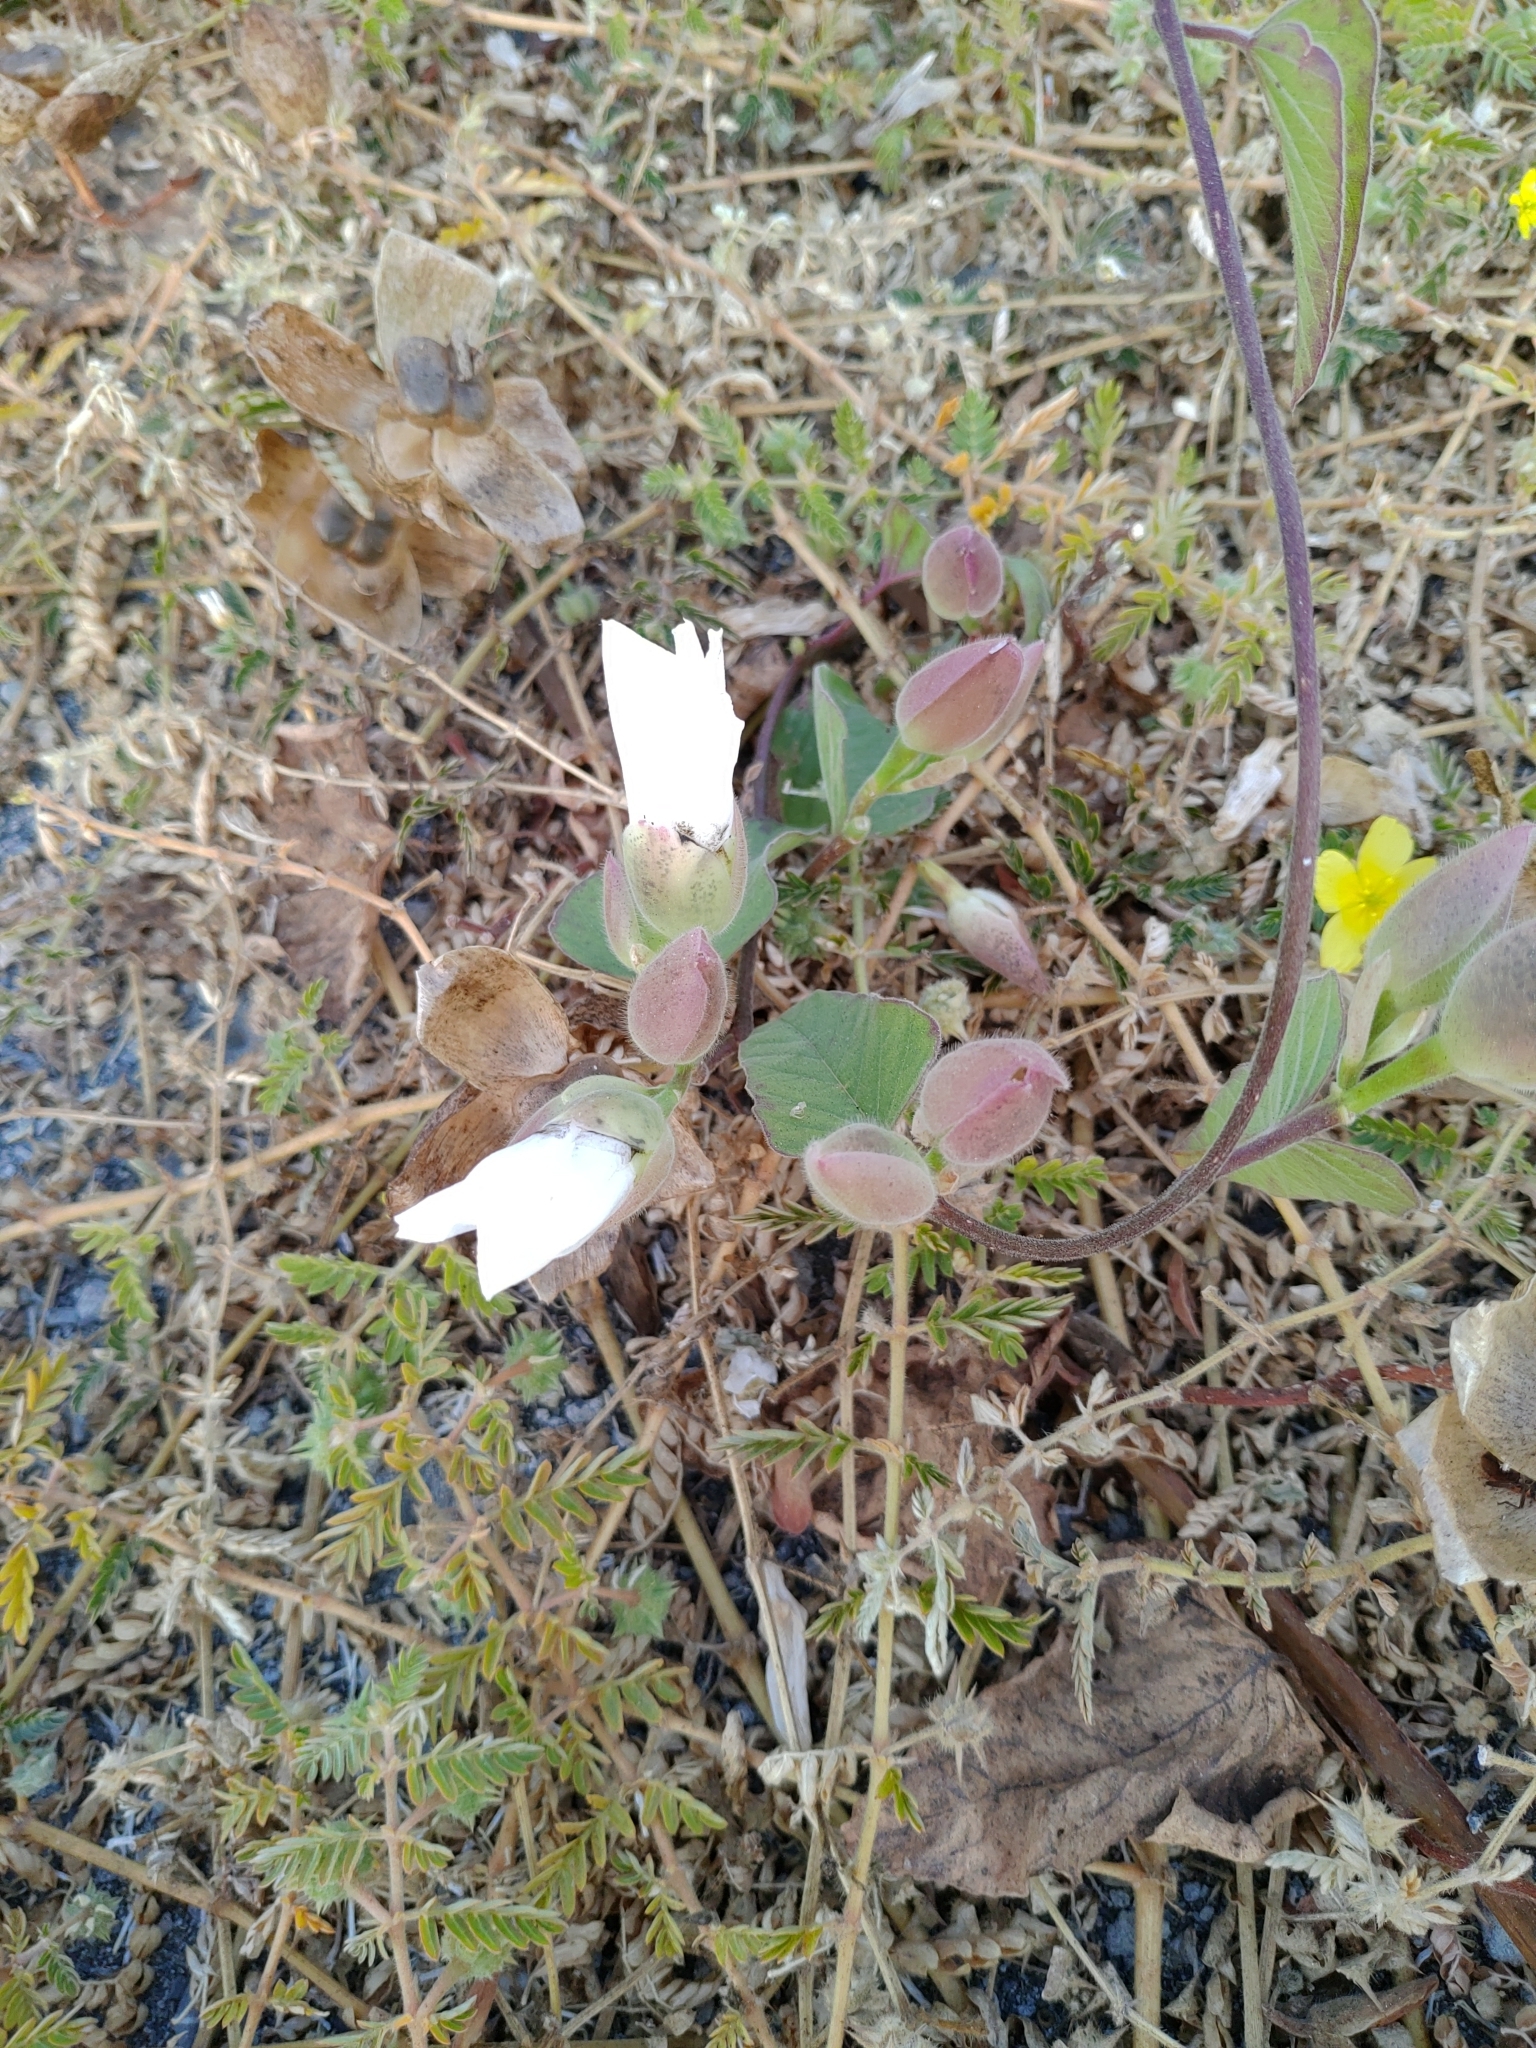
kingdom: Plantae
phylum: Tracheophyta
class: Magnoliopsida
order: Solanales
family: Convolvulaceae
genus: Operculina
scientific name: Operculina turpethum
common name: Transparent wood-rose
